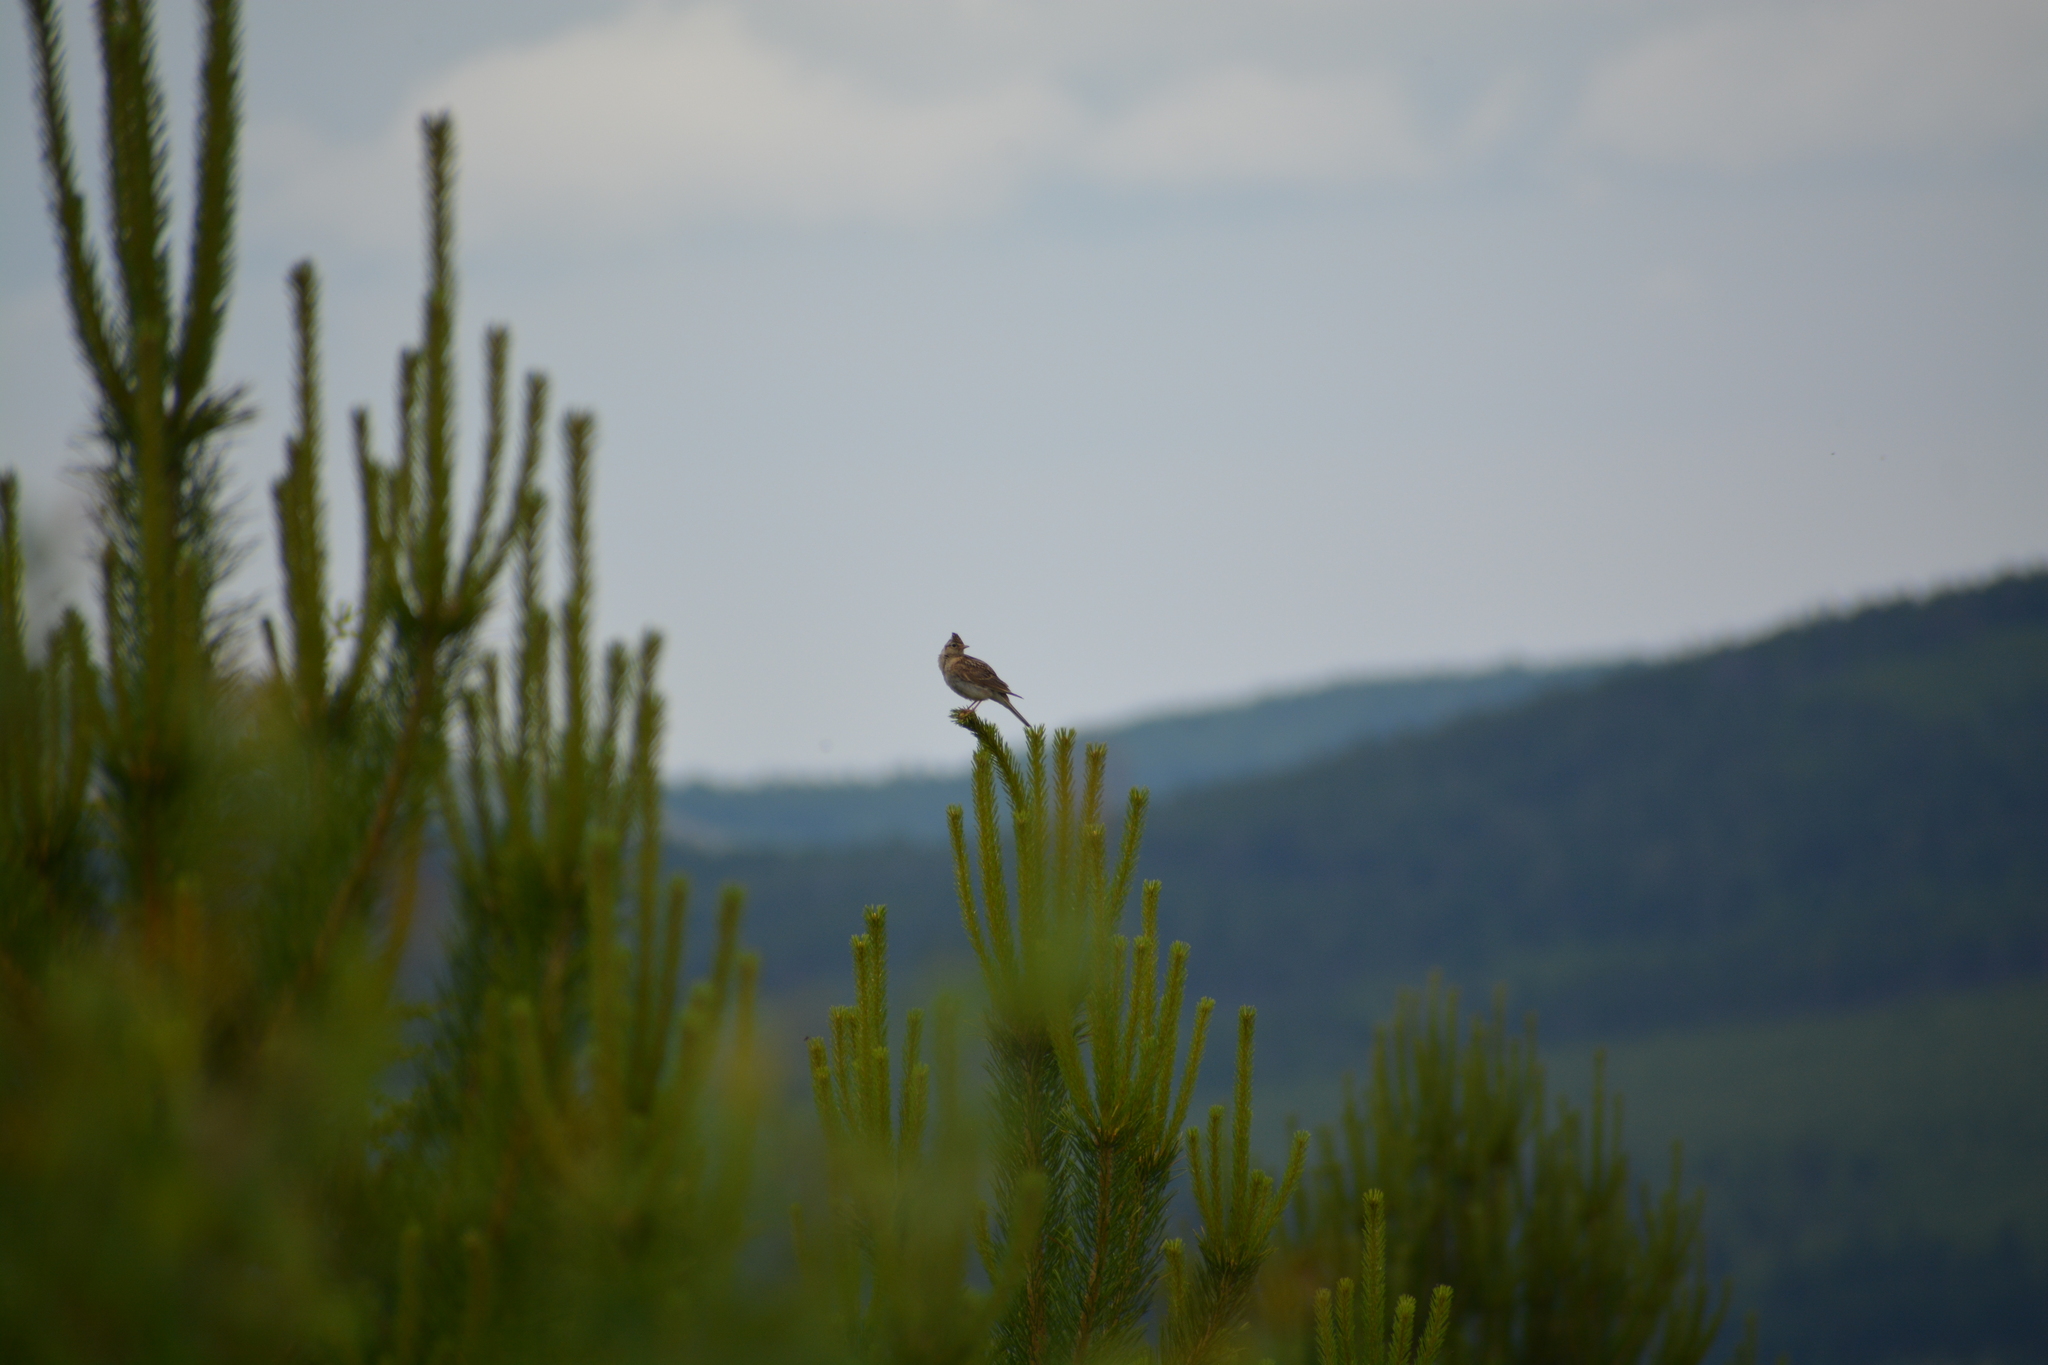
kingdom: Animalia
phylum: Chordata
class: Aves
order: Passeriformes
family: Alaudidae
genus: Alauda
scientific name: Alauda arvensis
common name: Eurasian skylark
